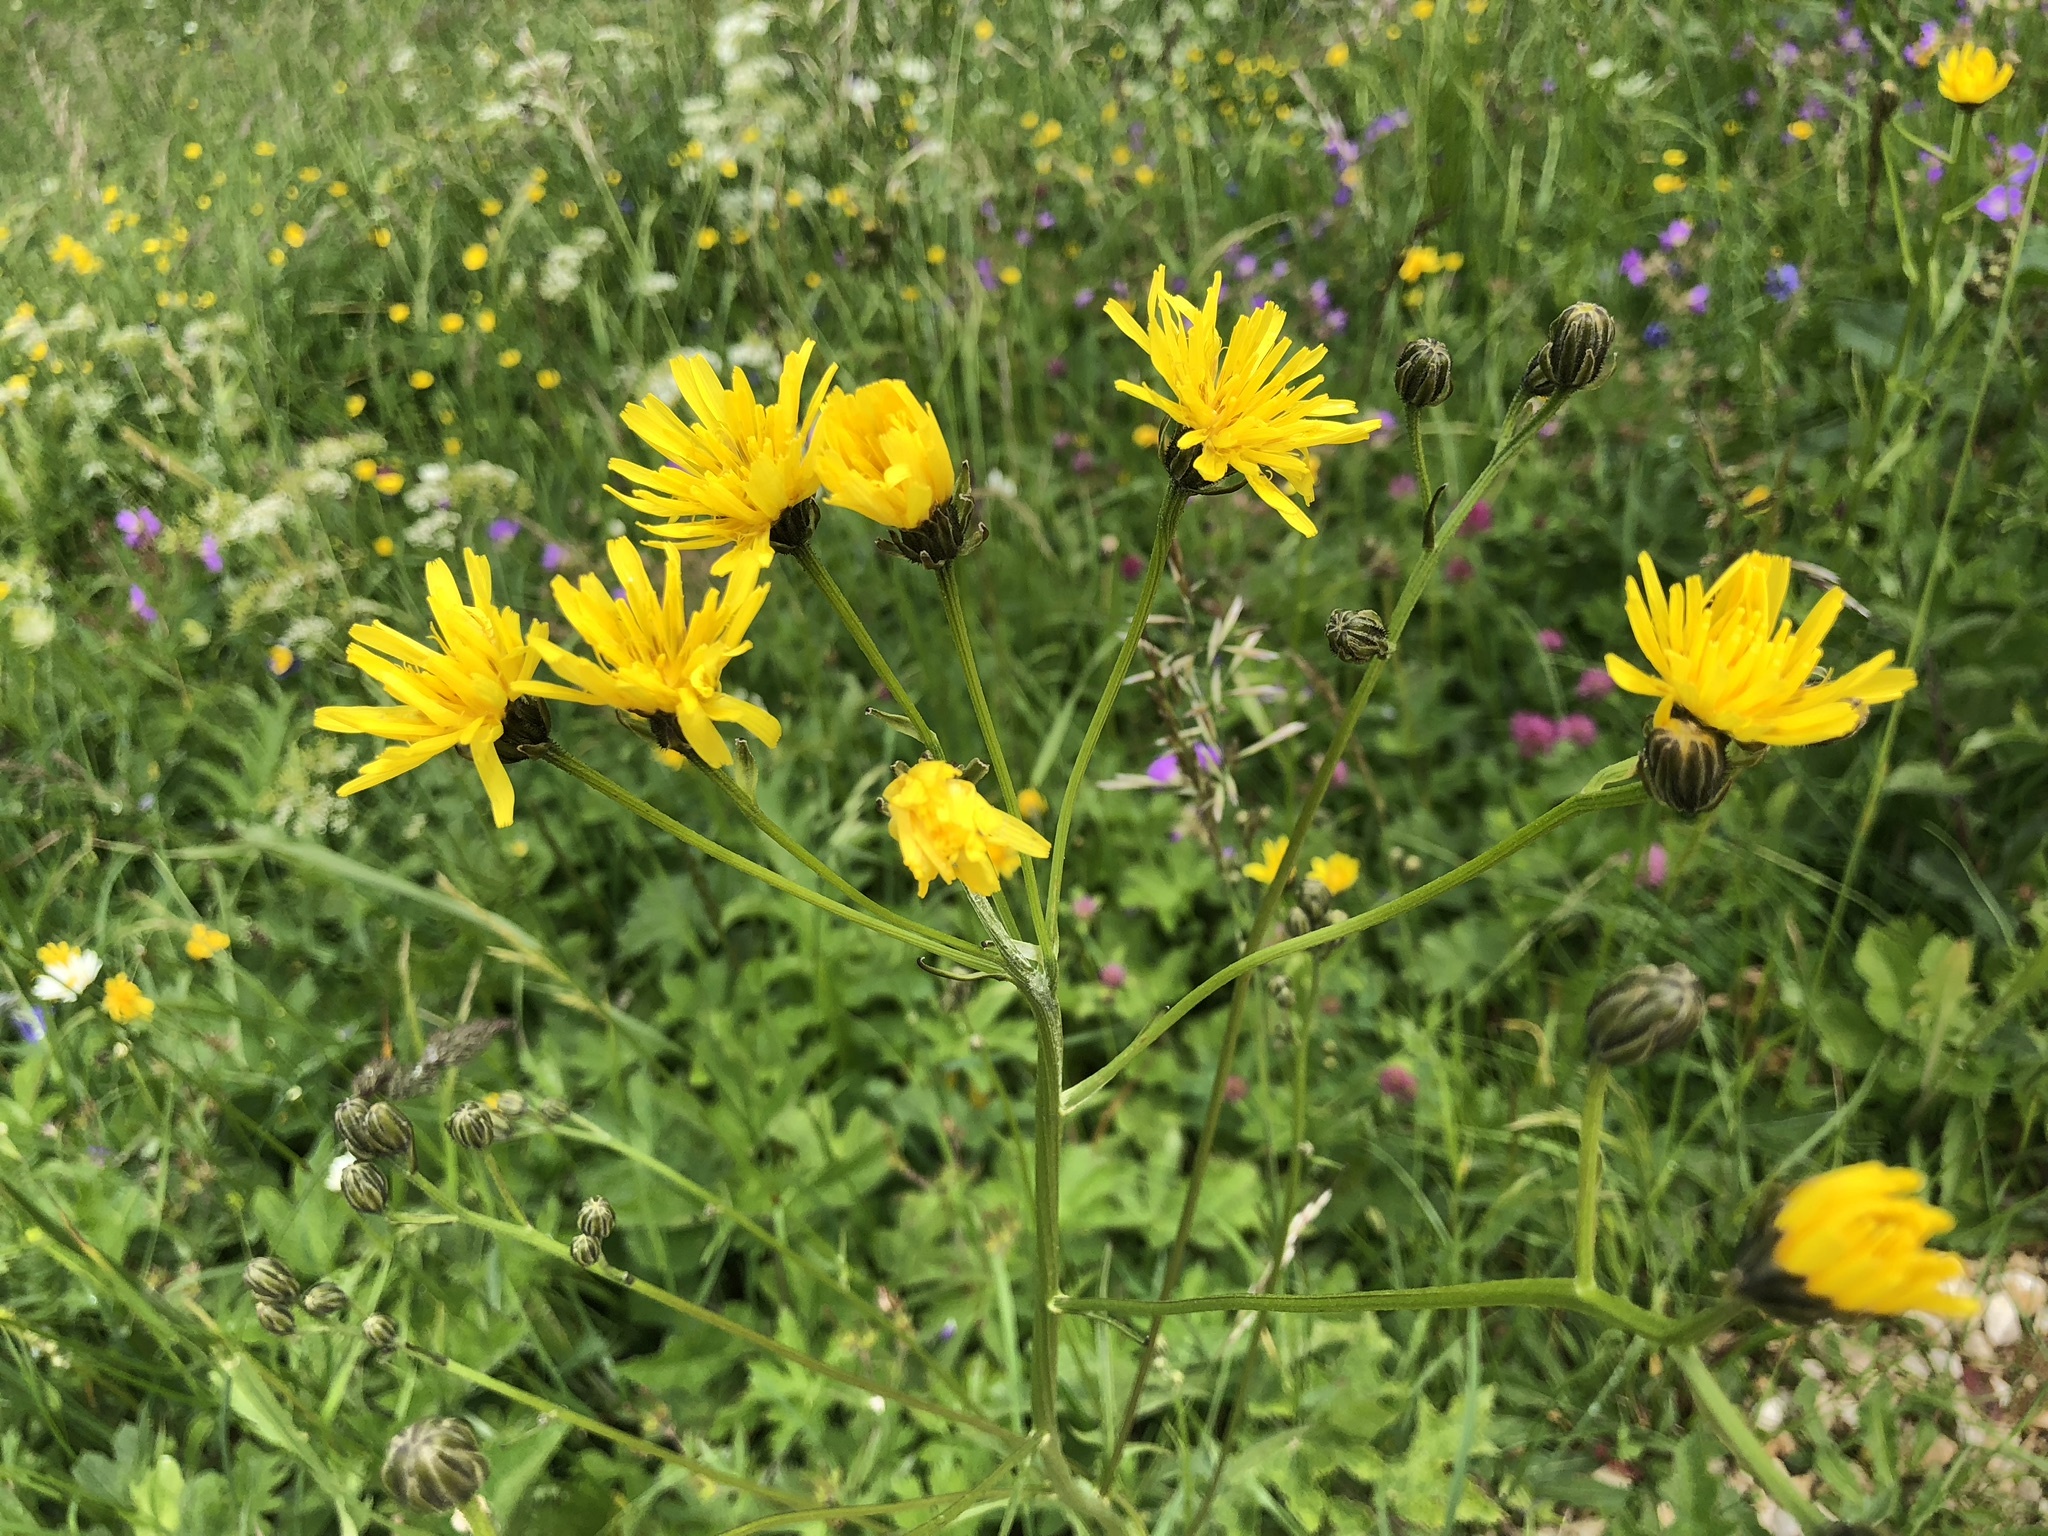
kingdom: Plantae
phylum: Tracheophyta
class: Magnoliopsida
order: Asterales
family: Asteraceae
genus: Crepis
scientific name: Crepis biennis
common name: Rough hawk's-beard
